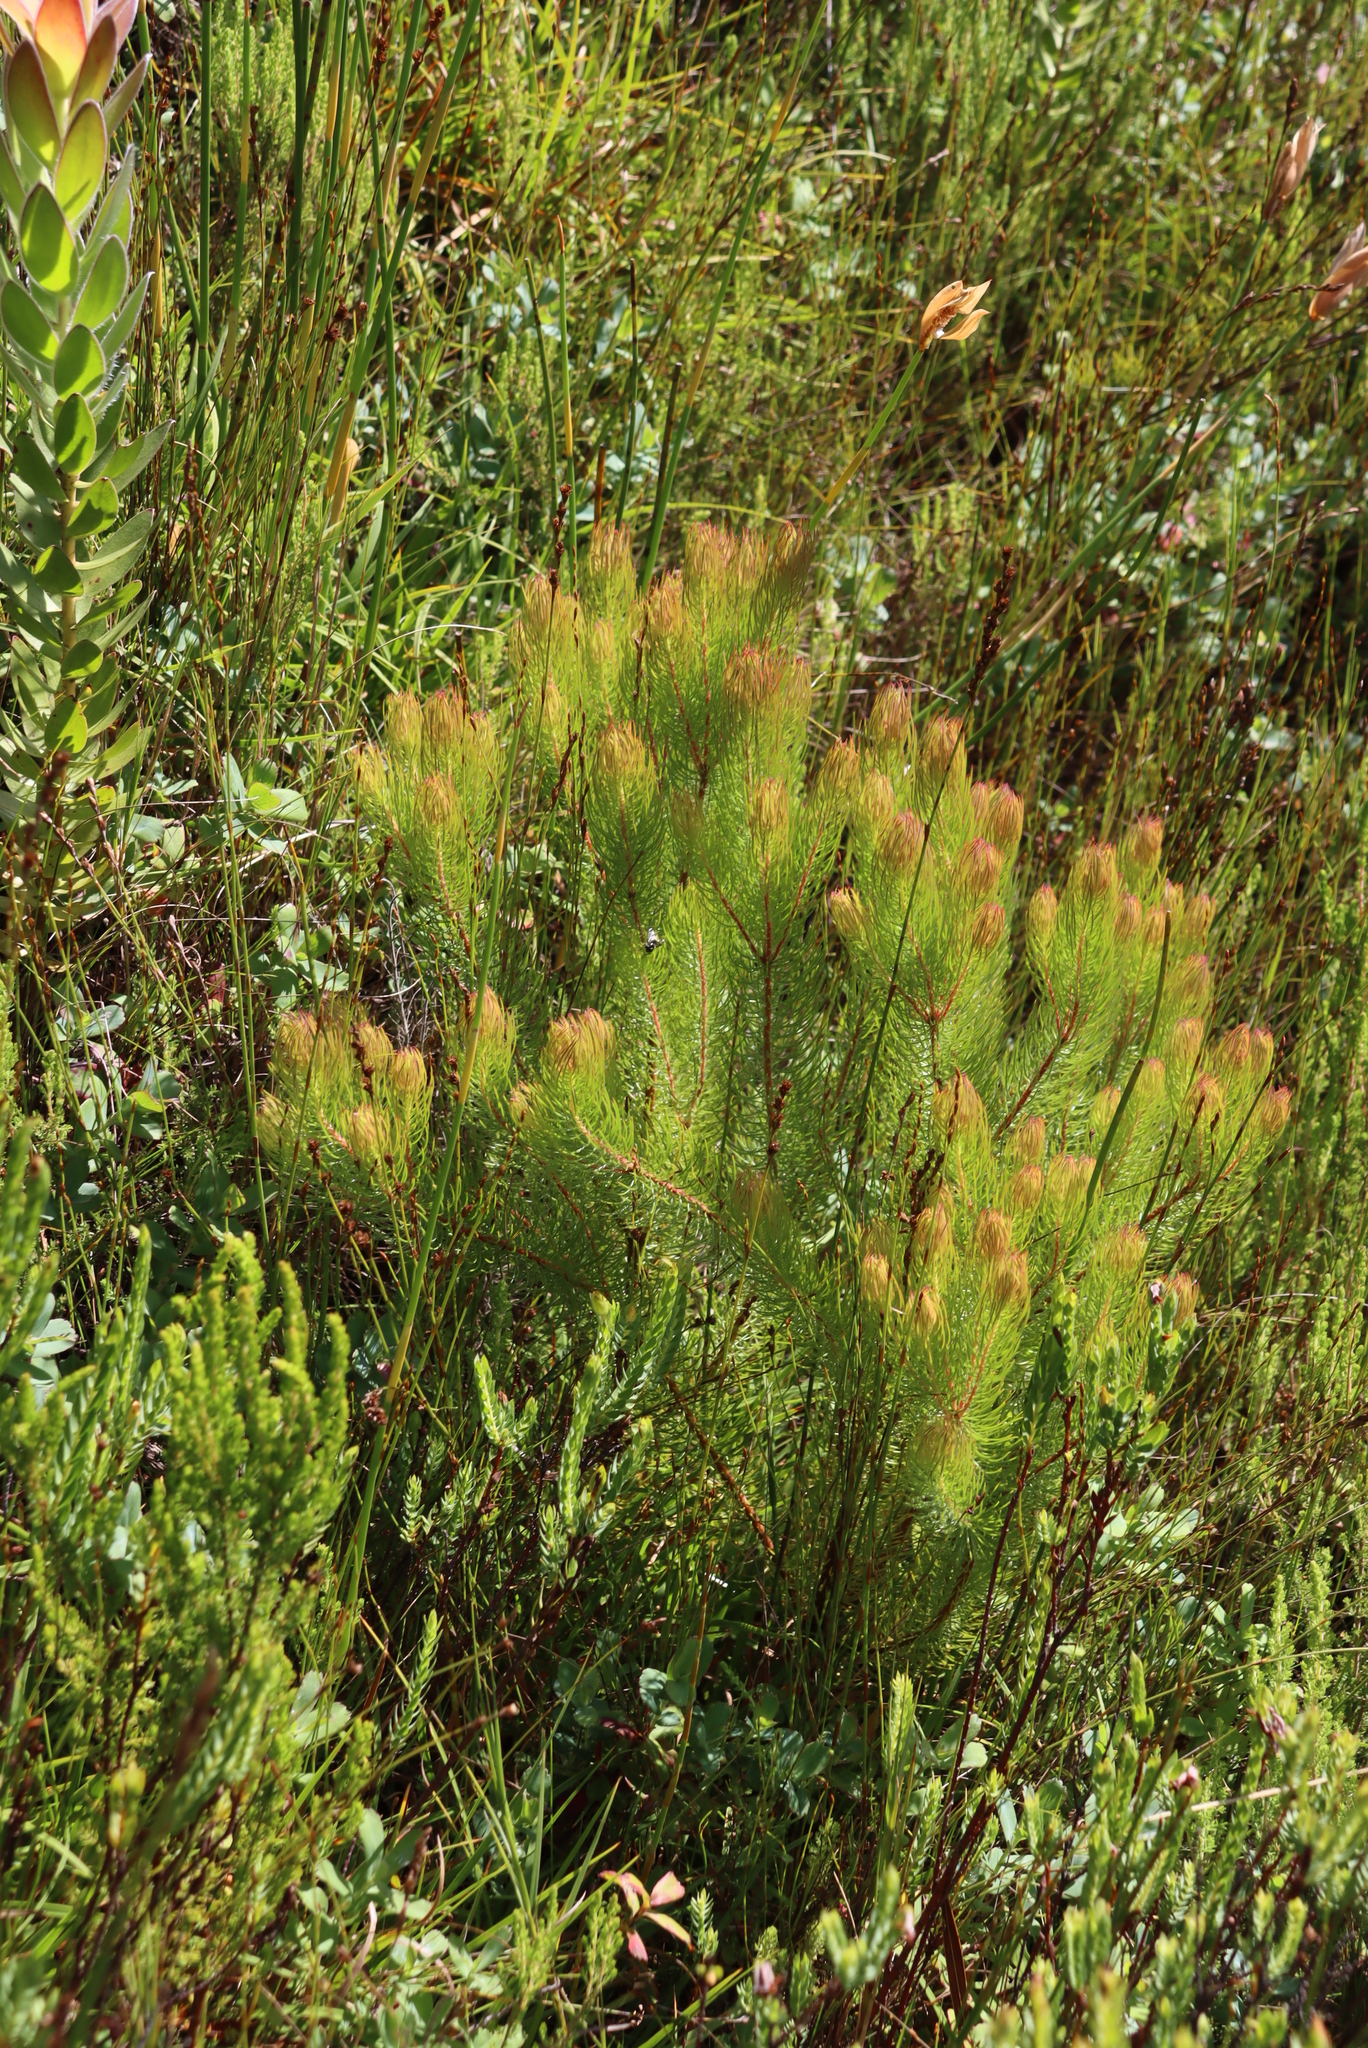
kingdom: Plantae
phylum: Tracheophyta
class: Magnoliopsida
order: Proteales
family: Proteaceae
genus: Spatalla
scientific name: Spatalla setacea
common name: Needle-leaf spoon
